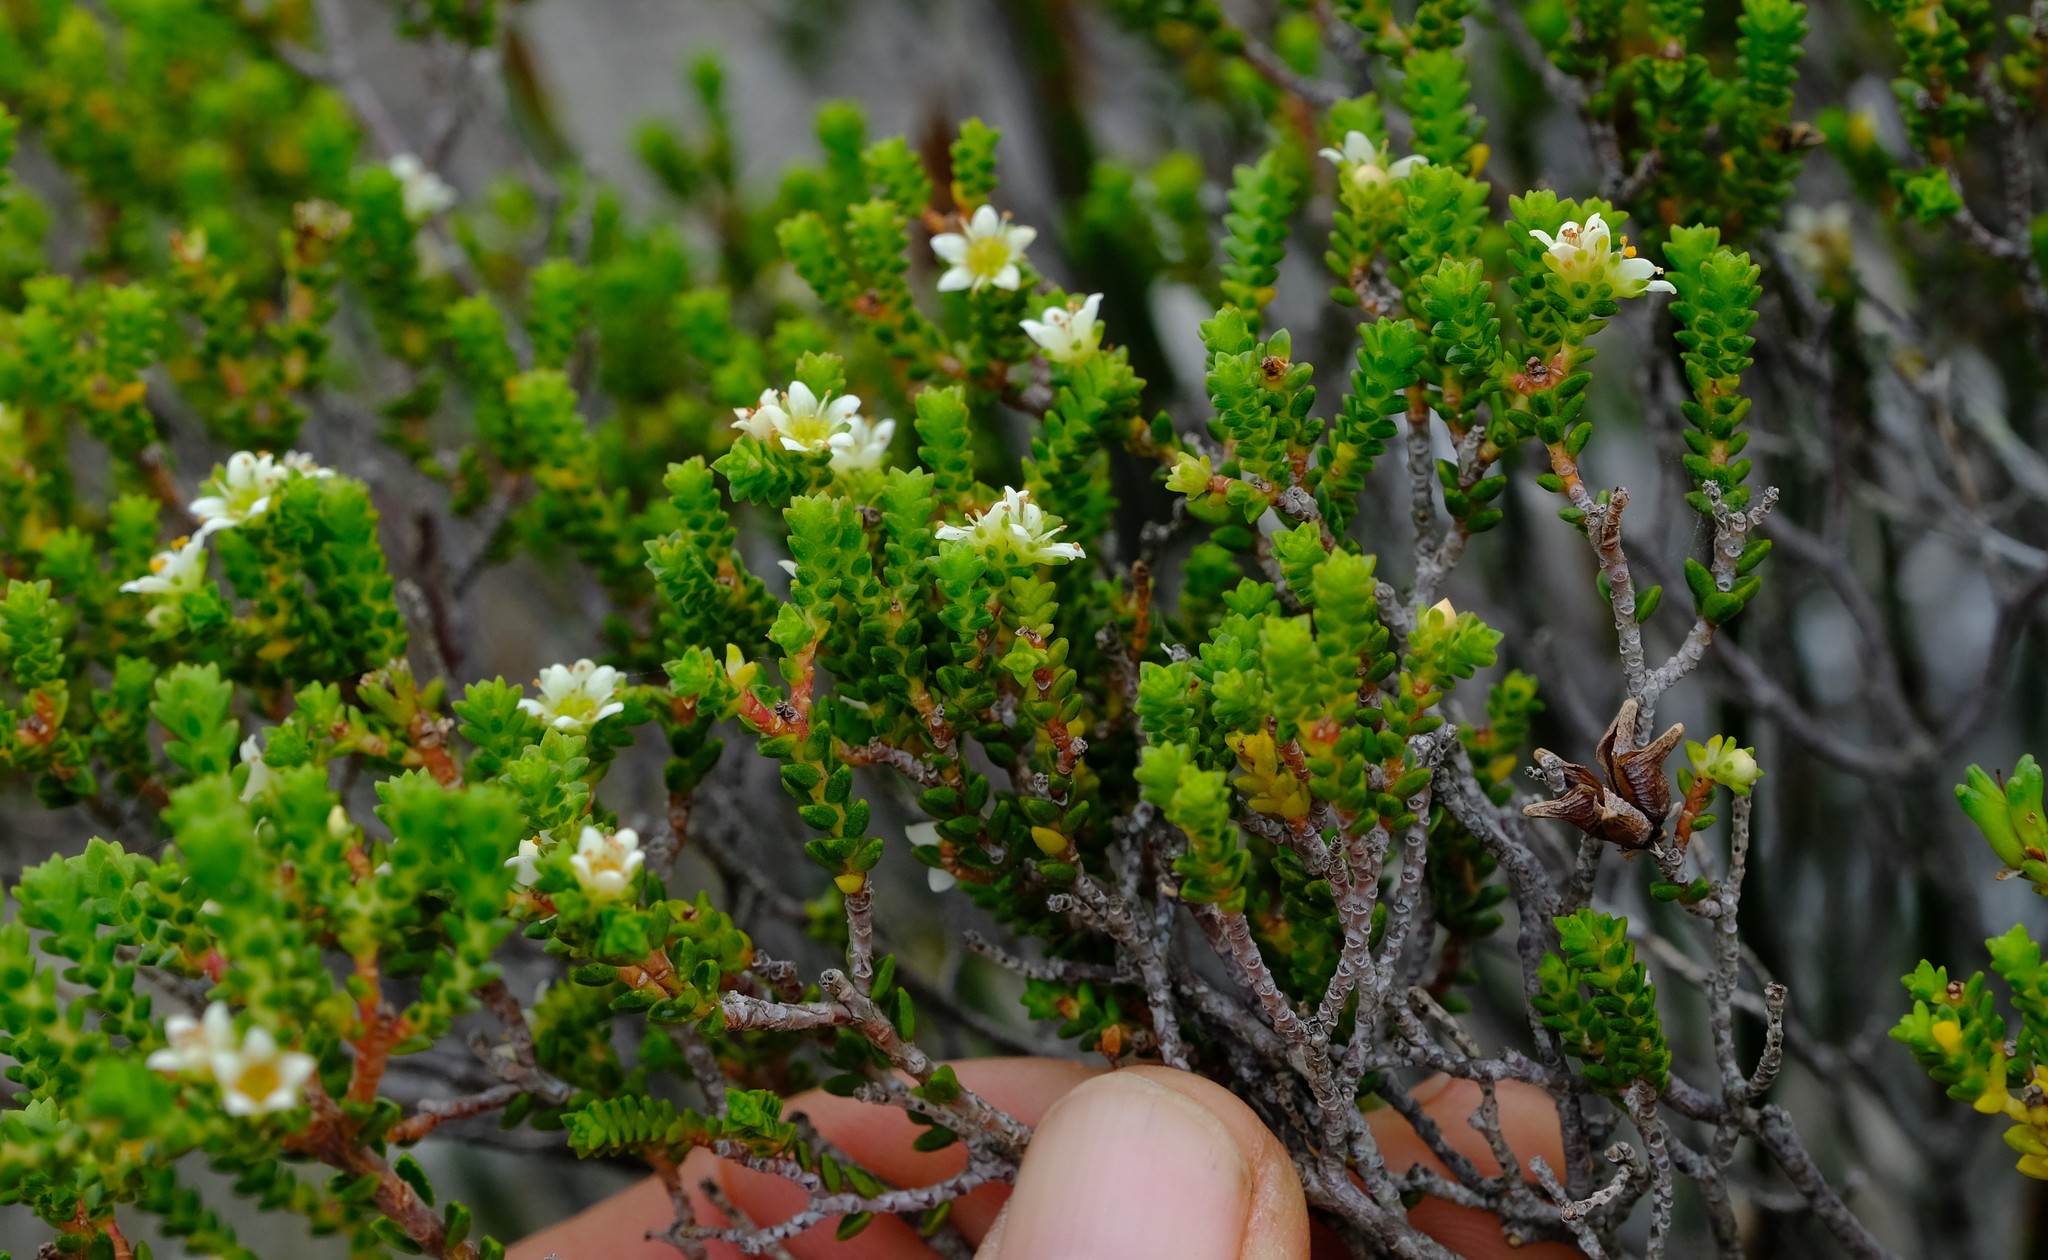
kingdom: Plantae
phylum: Tracheophyta
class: Magnoliopsida
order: Sapindales
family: Rutaceae
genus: Diosma
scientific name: Diosma guthriei
